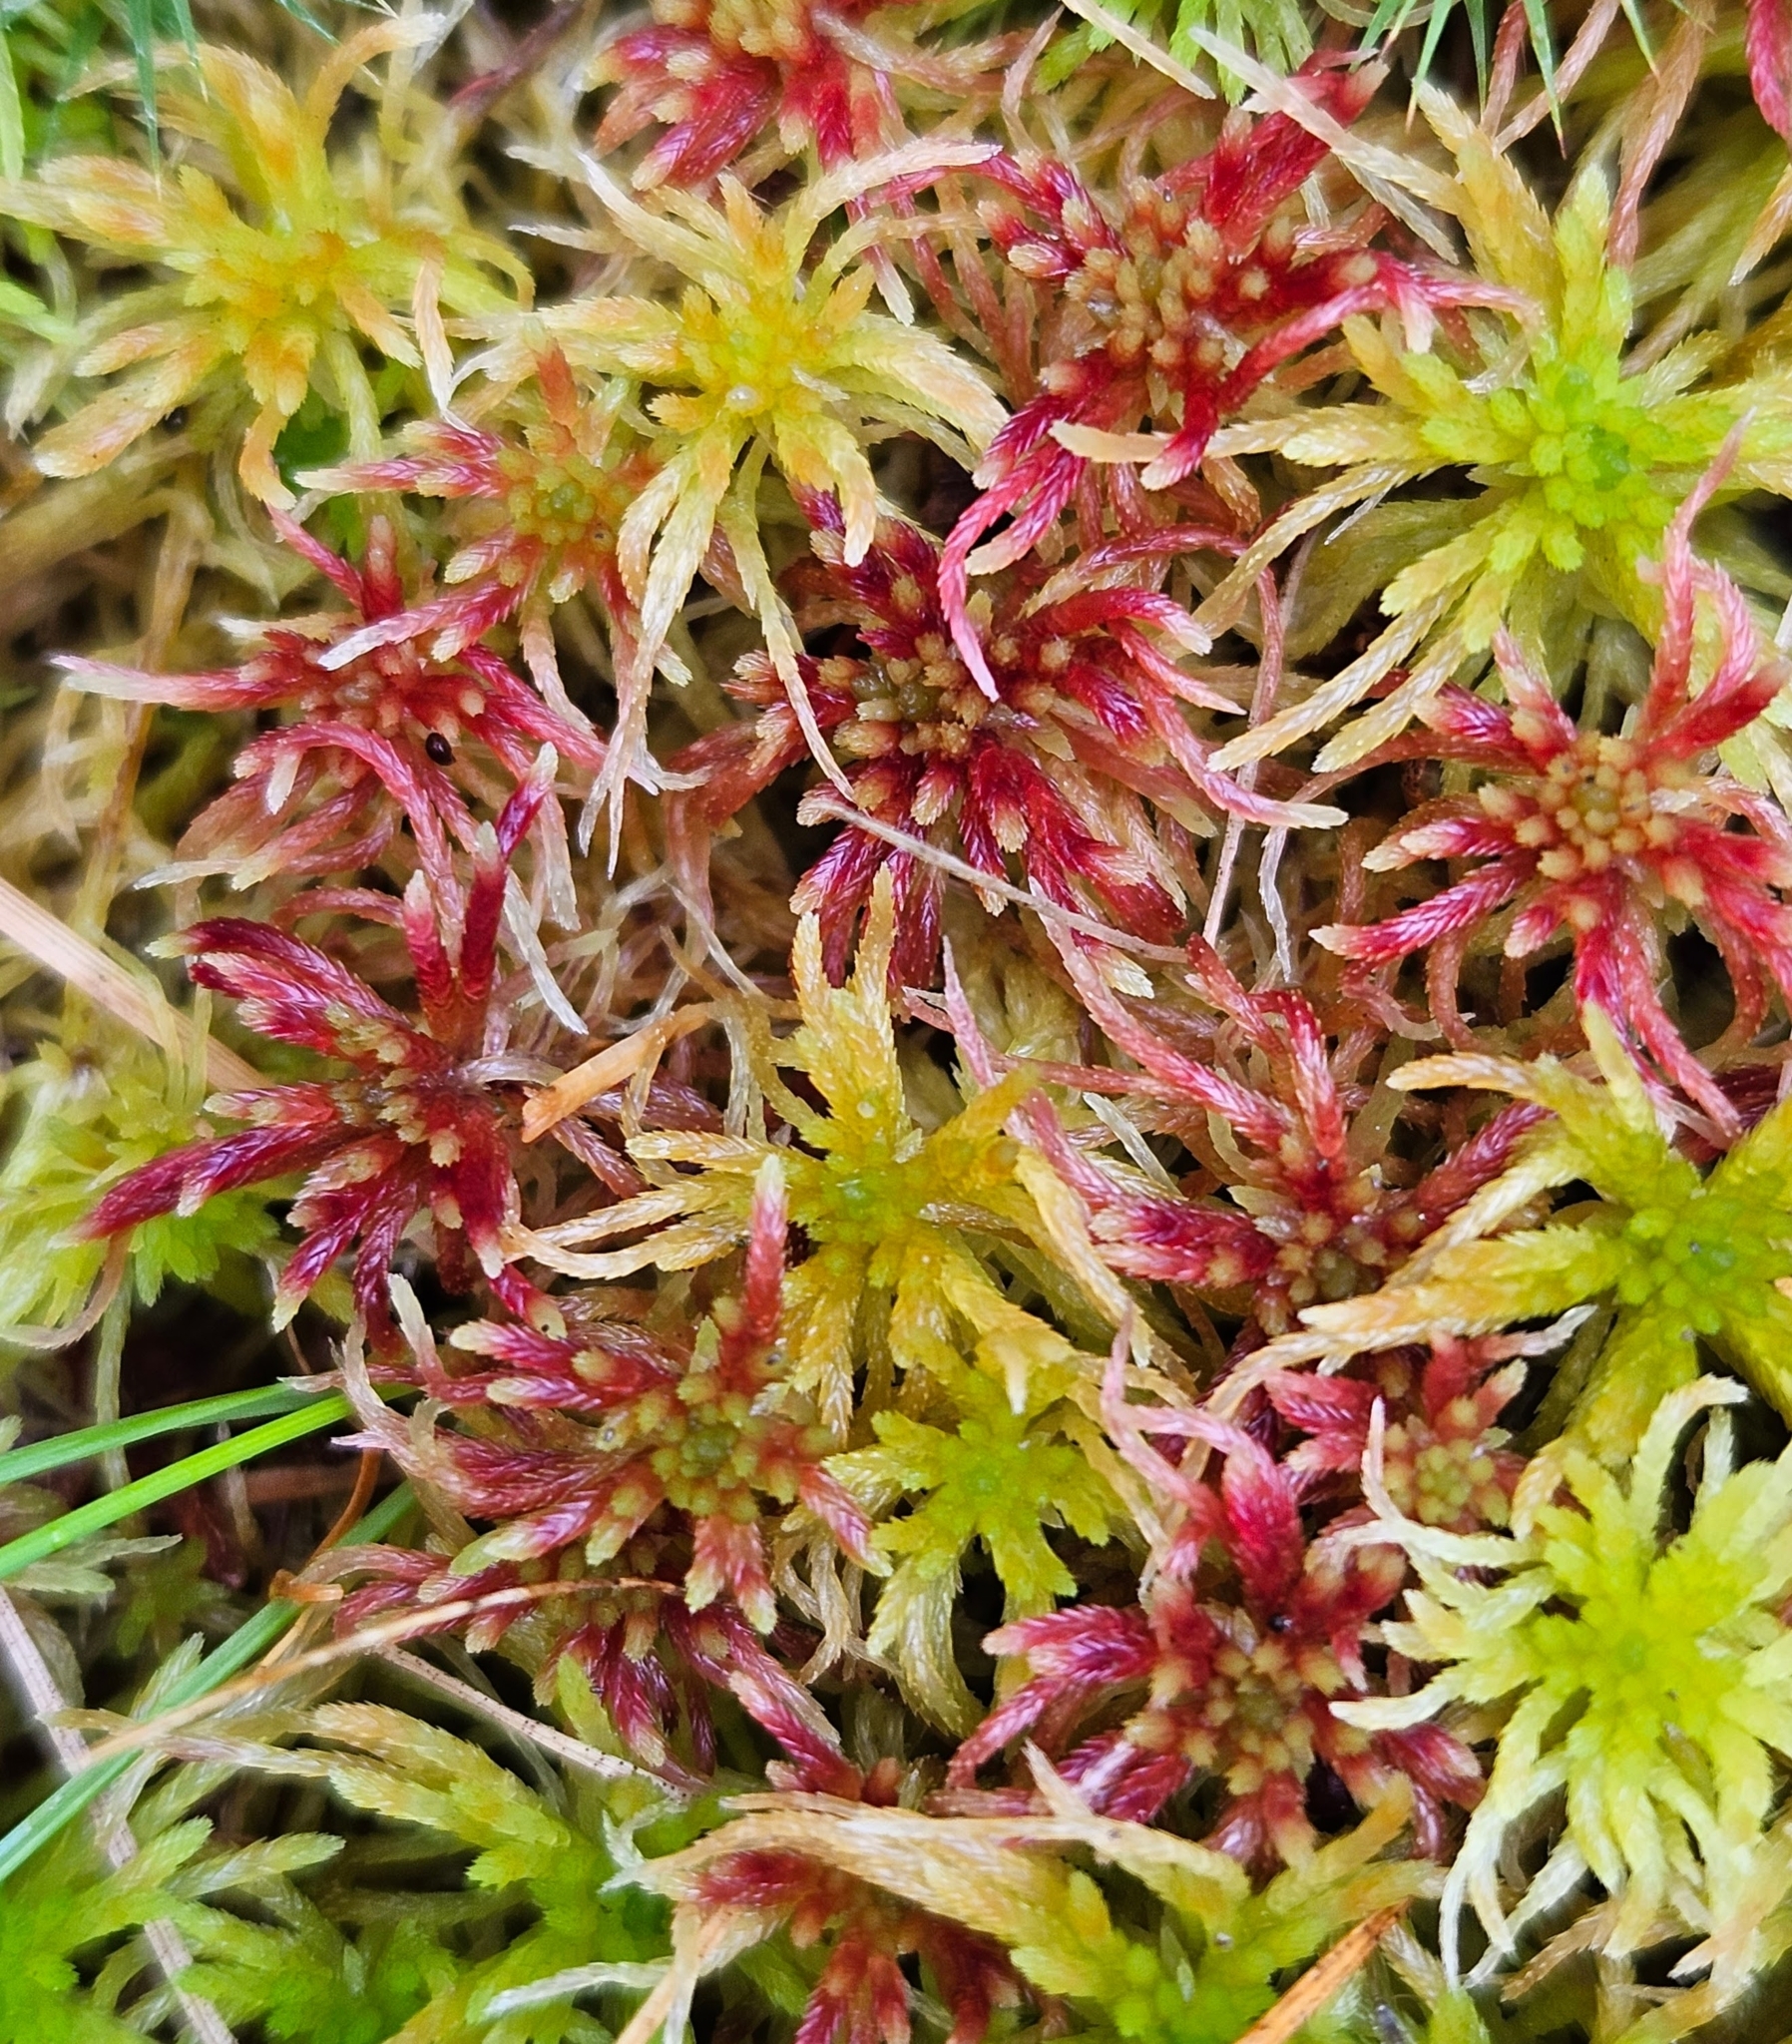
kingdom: Plantae
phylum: Bryophyta
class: Sphagnopsida
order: Sphagnales
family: Sphagnaceae
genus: Sphagnum
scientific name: Sphagnum russowii
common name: Russow's peat moss
